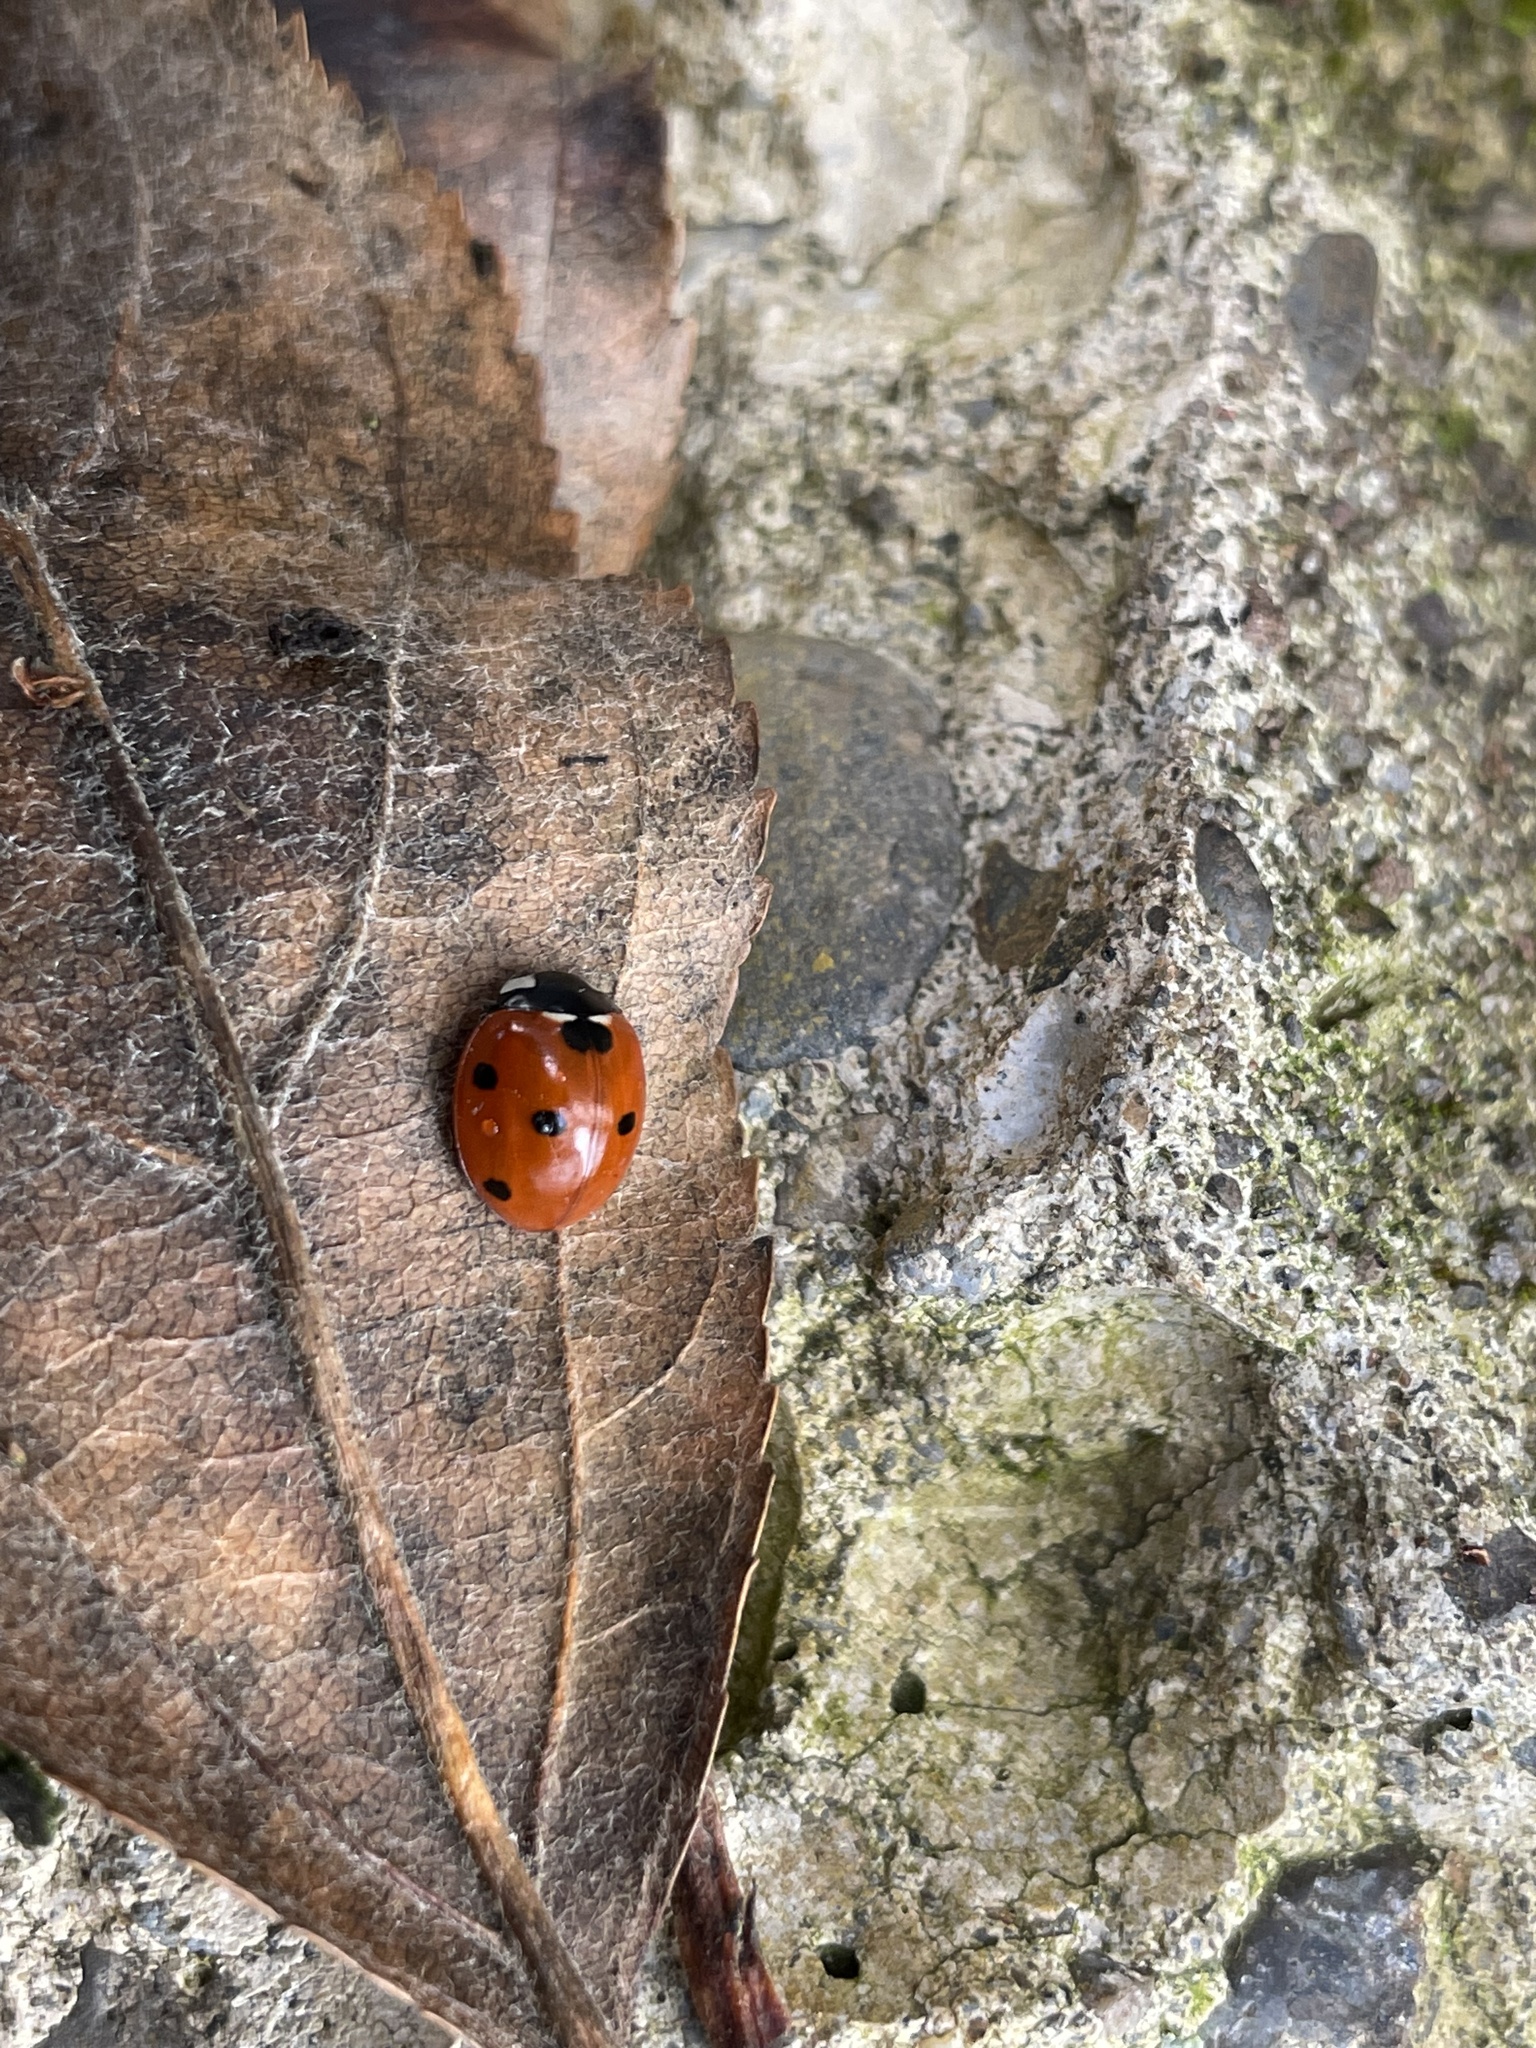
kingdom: Animalia
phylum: Arthropoda
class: Insecta
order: Coleoptera
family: Coccinellidae
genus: Coccinella
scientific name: Coccinella septempunctata
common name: Sevenspotted lady beetle
